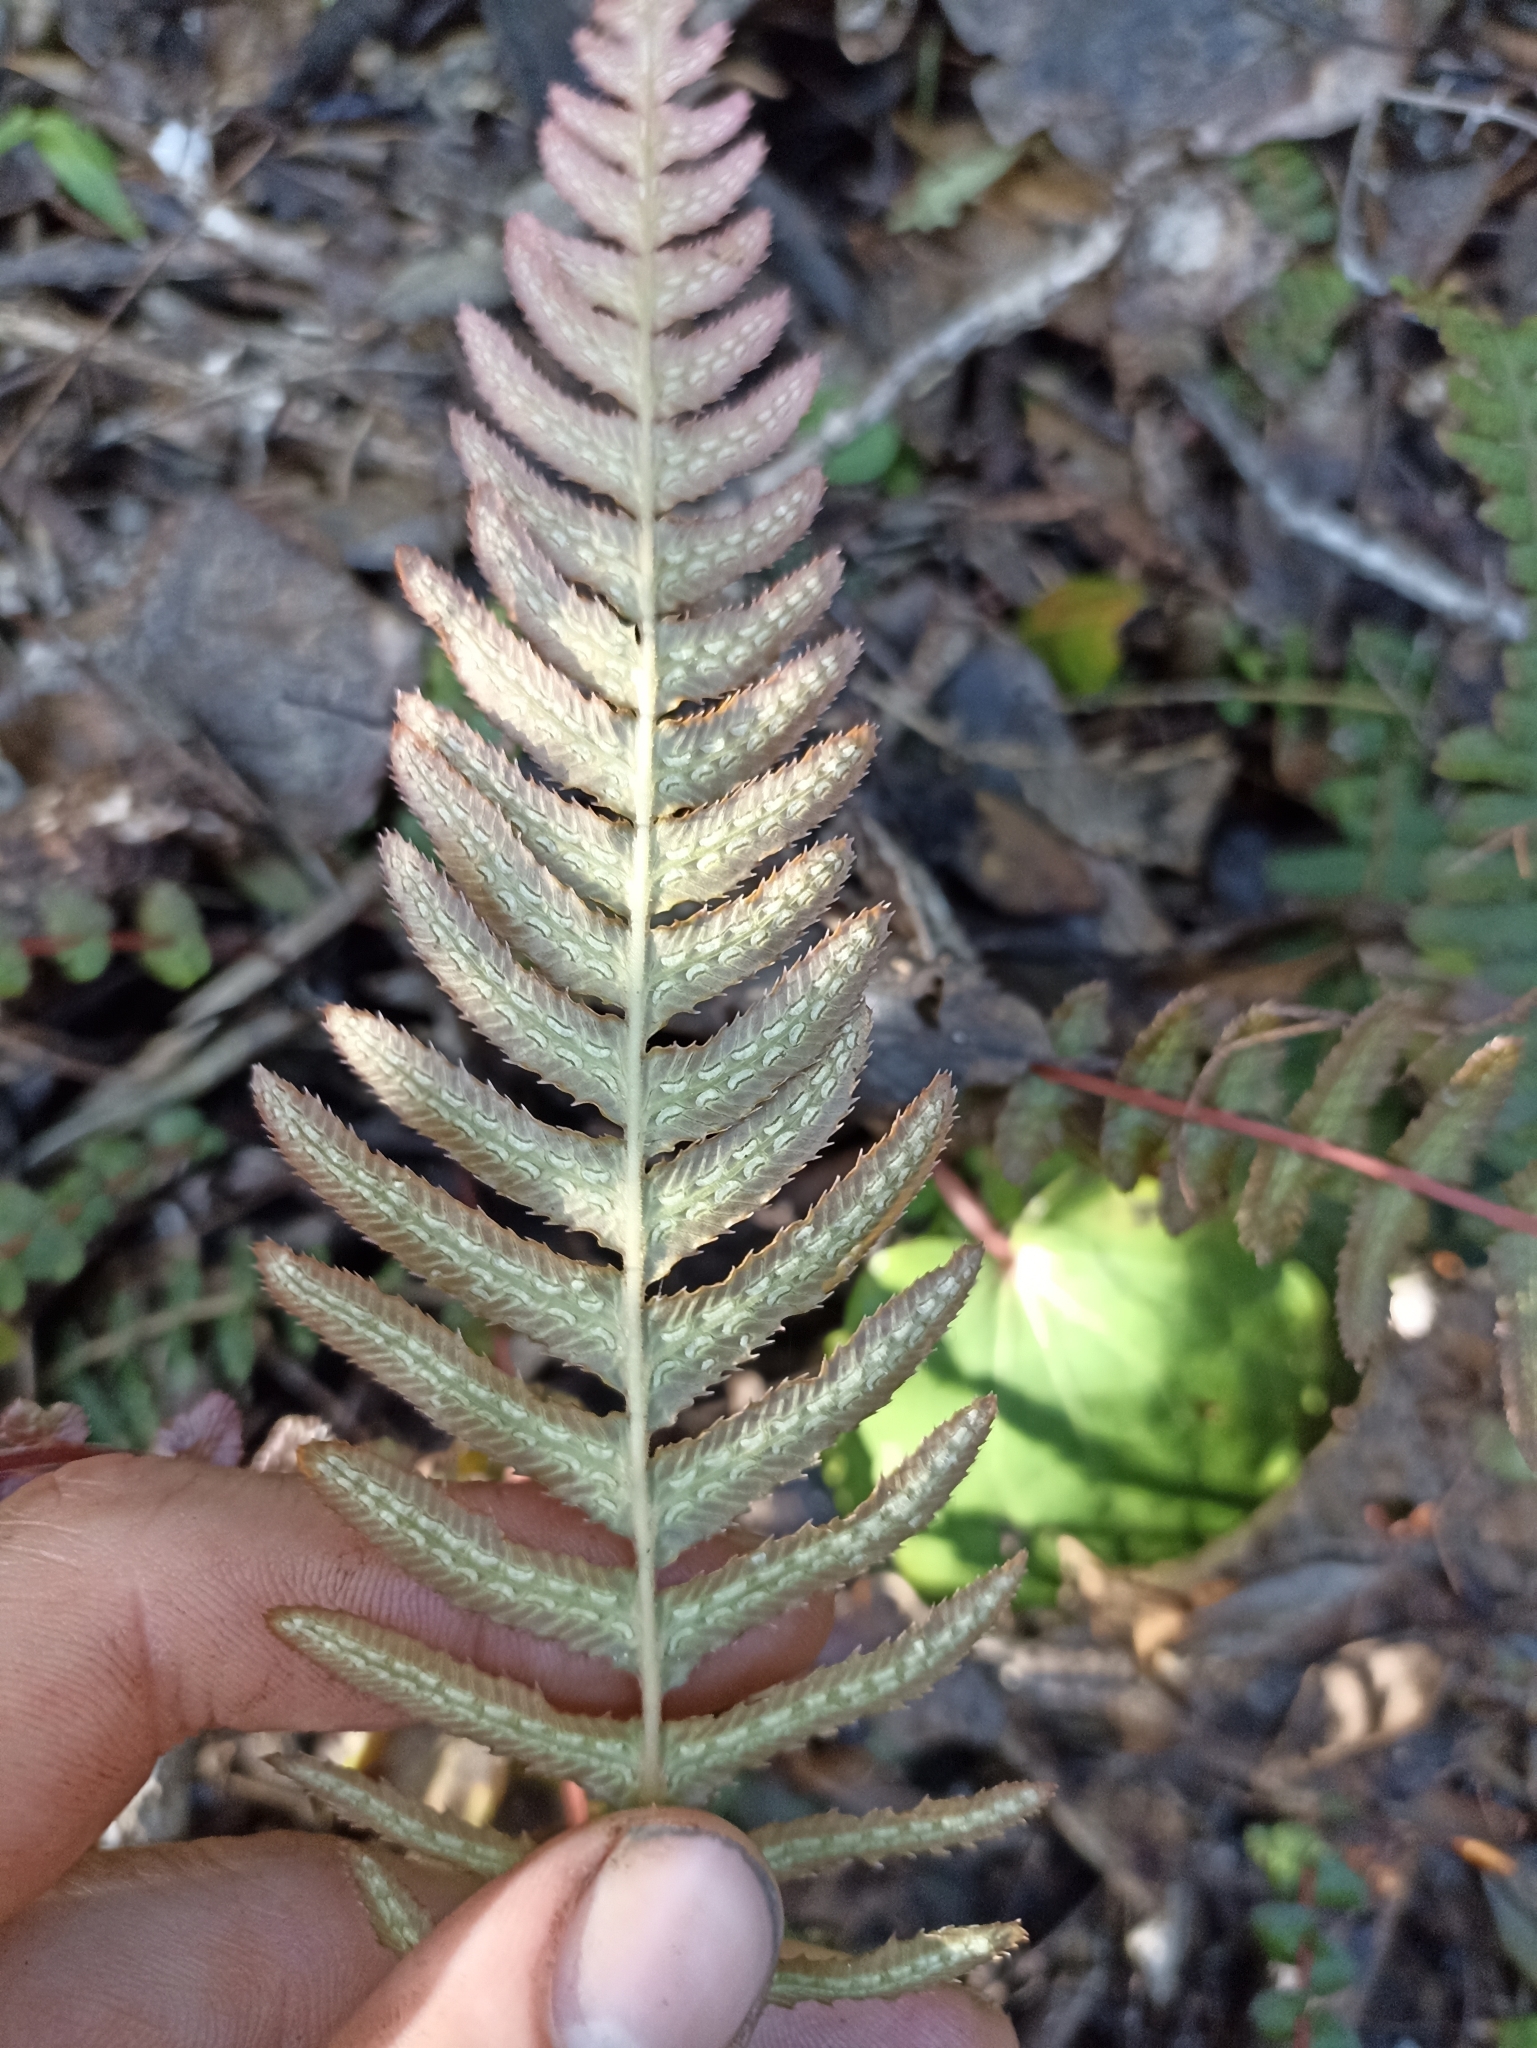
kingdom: Plantae
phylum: Tracheophyta
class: Polypodiopsida
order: Polypodiales
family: Blechnaceae
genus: Doodia
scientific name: Doodia australis
